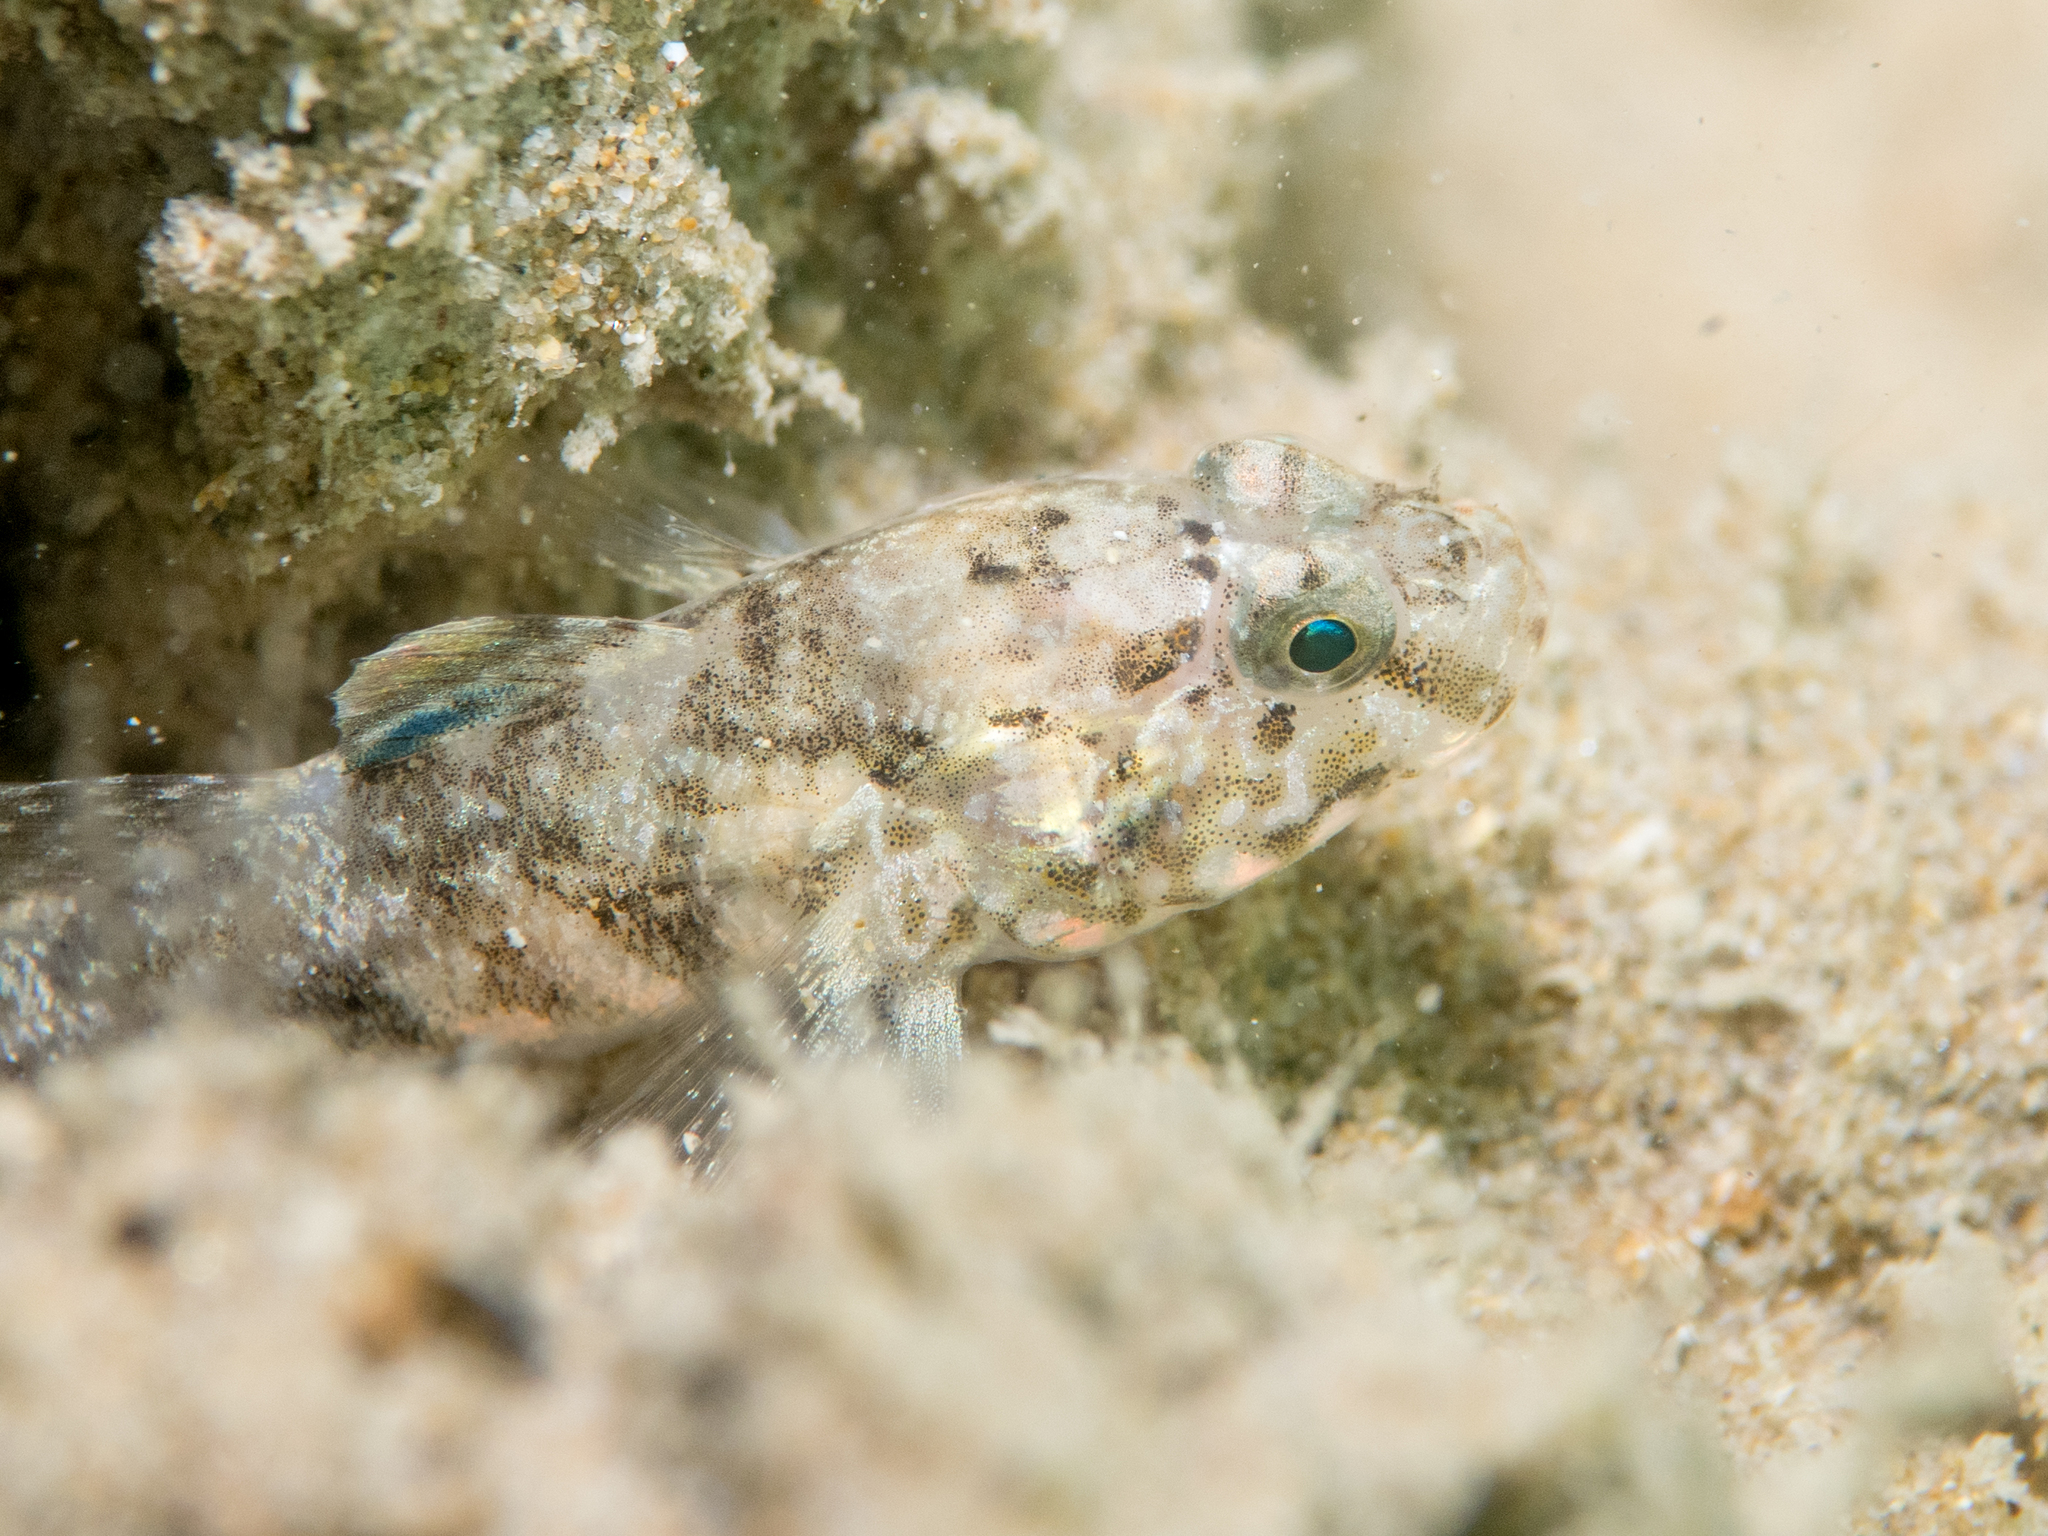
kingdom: Animalia
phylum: Chordata
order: Perciformes
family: Gobiidae
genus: Gobius
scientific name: Gobius paganellus
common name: Rock goby
